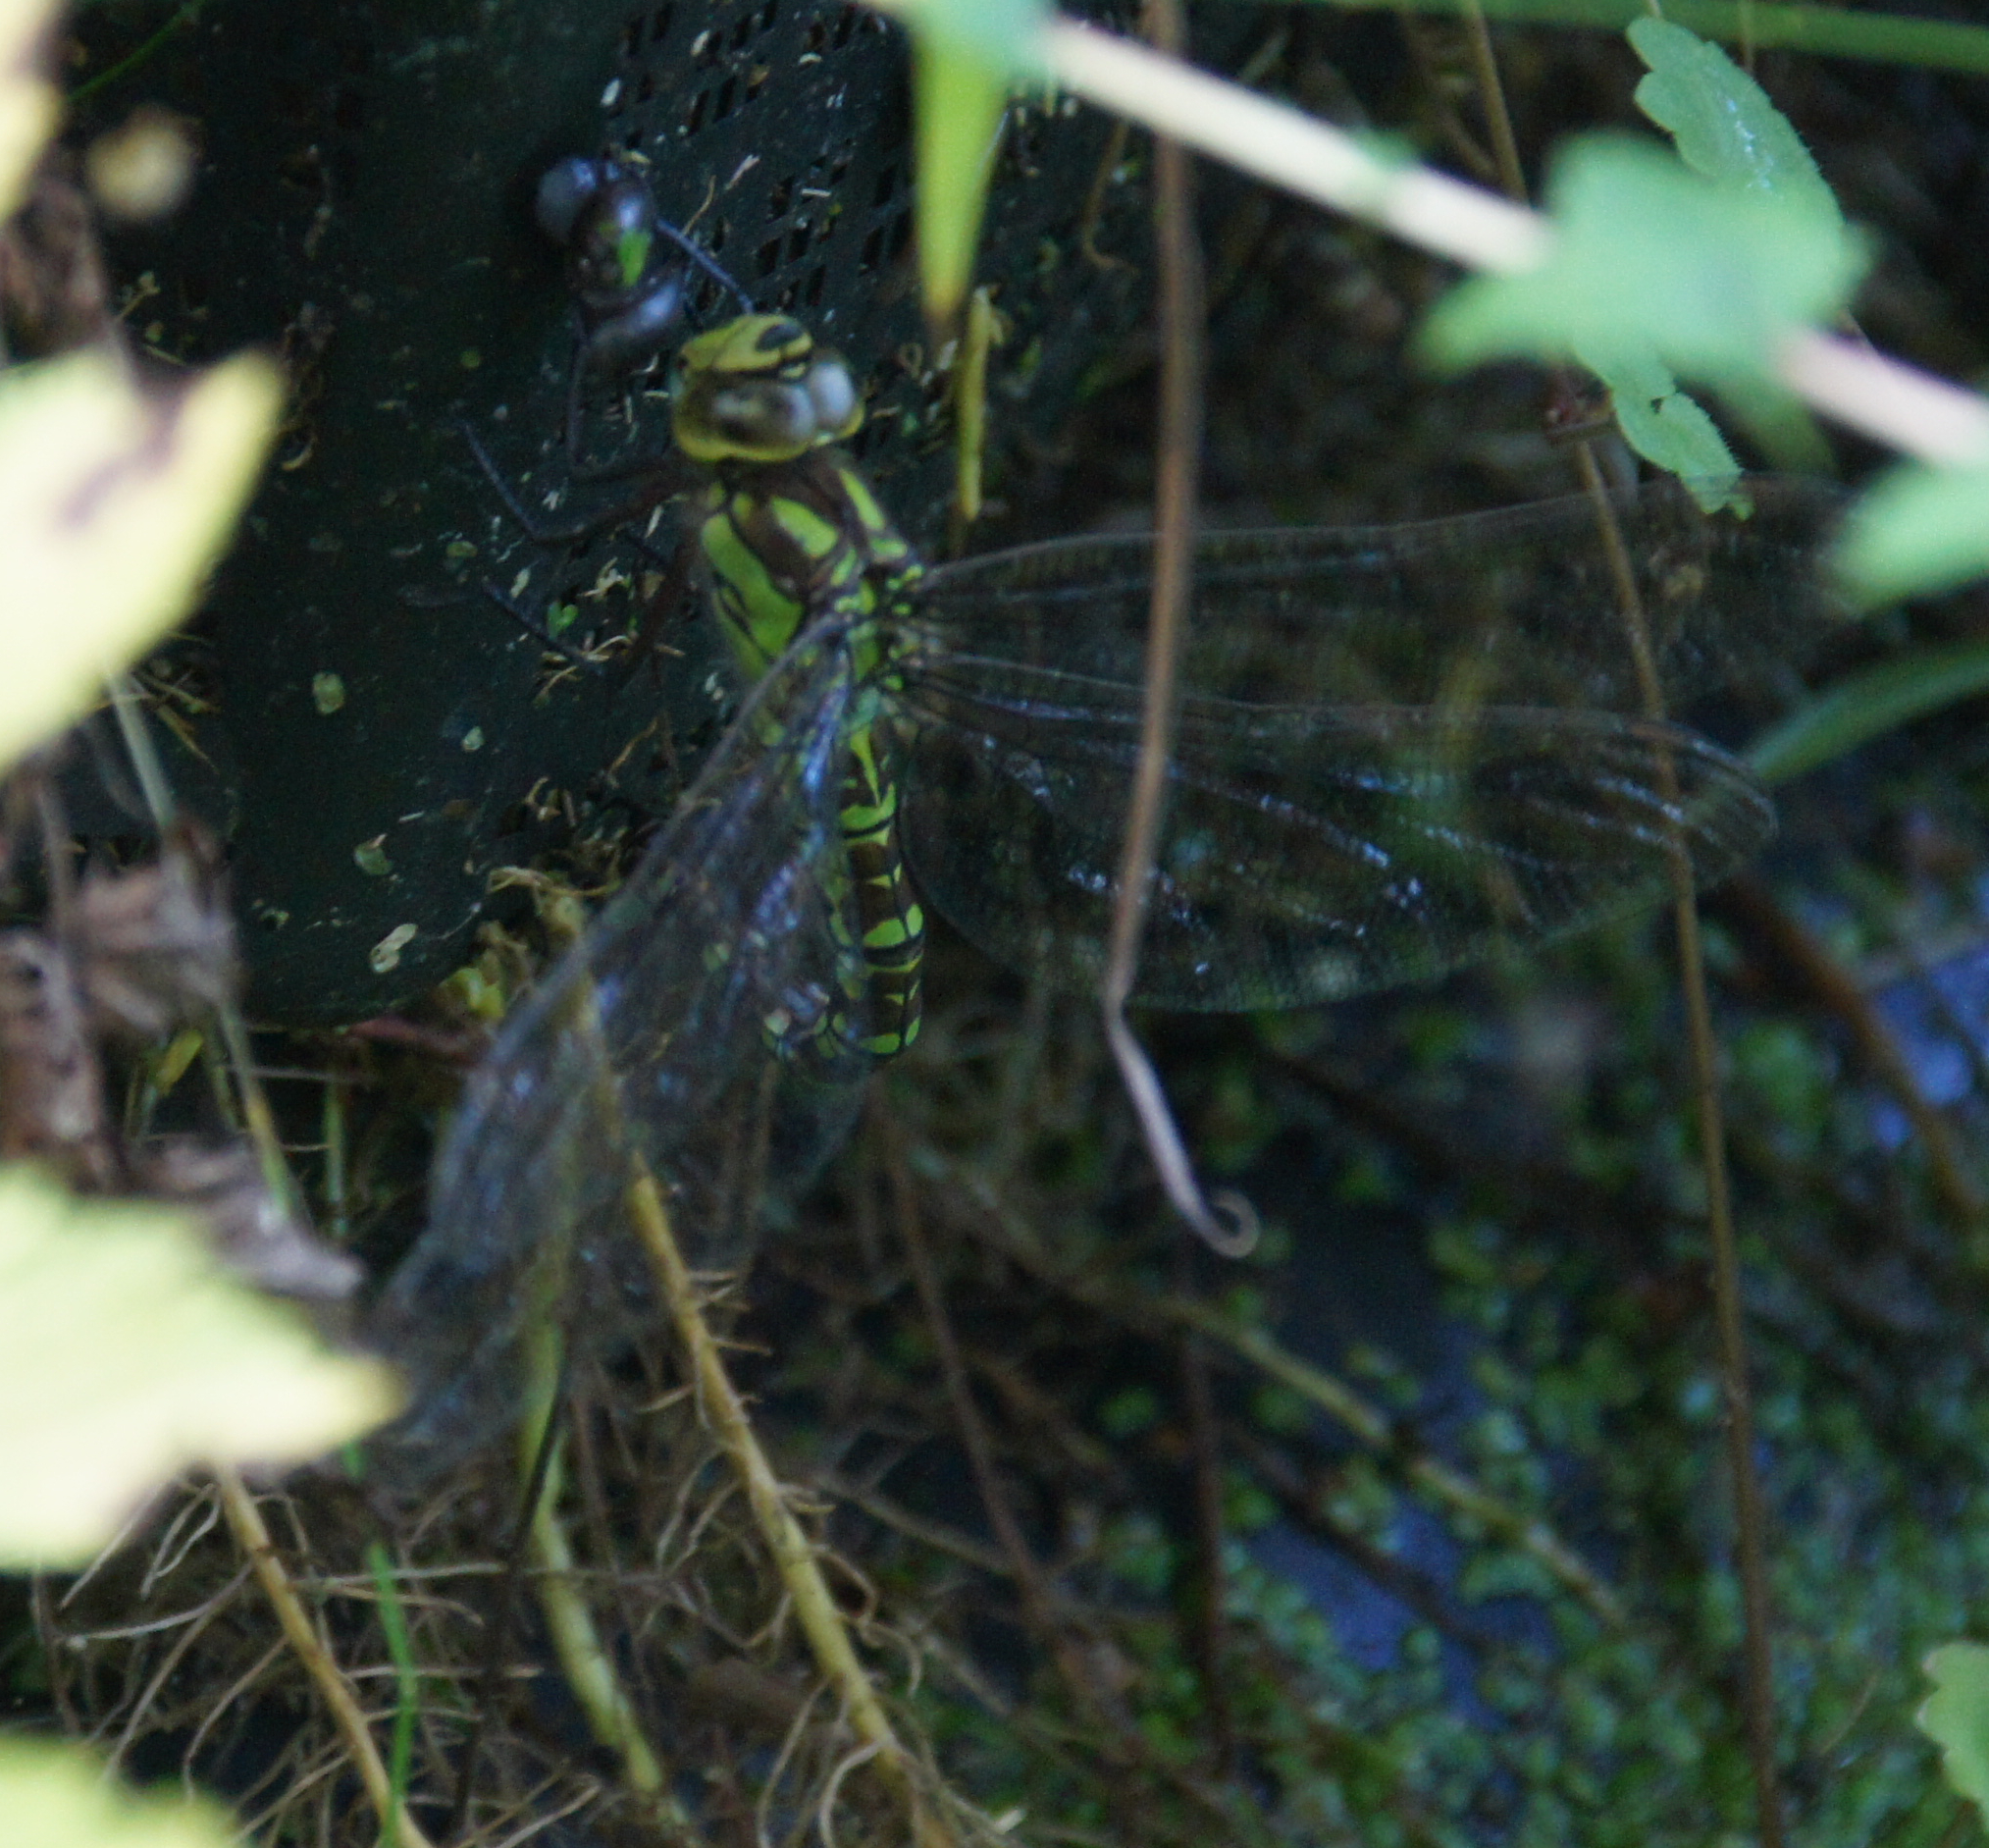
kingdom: Animalia
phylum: Arthropoda
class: Insecta
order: Odonata
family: Aeshnidae
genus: Aeshna
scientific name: Aeshna cyanea
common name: Southern hawker
